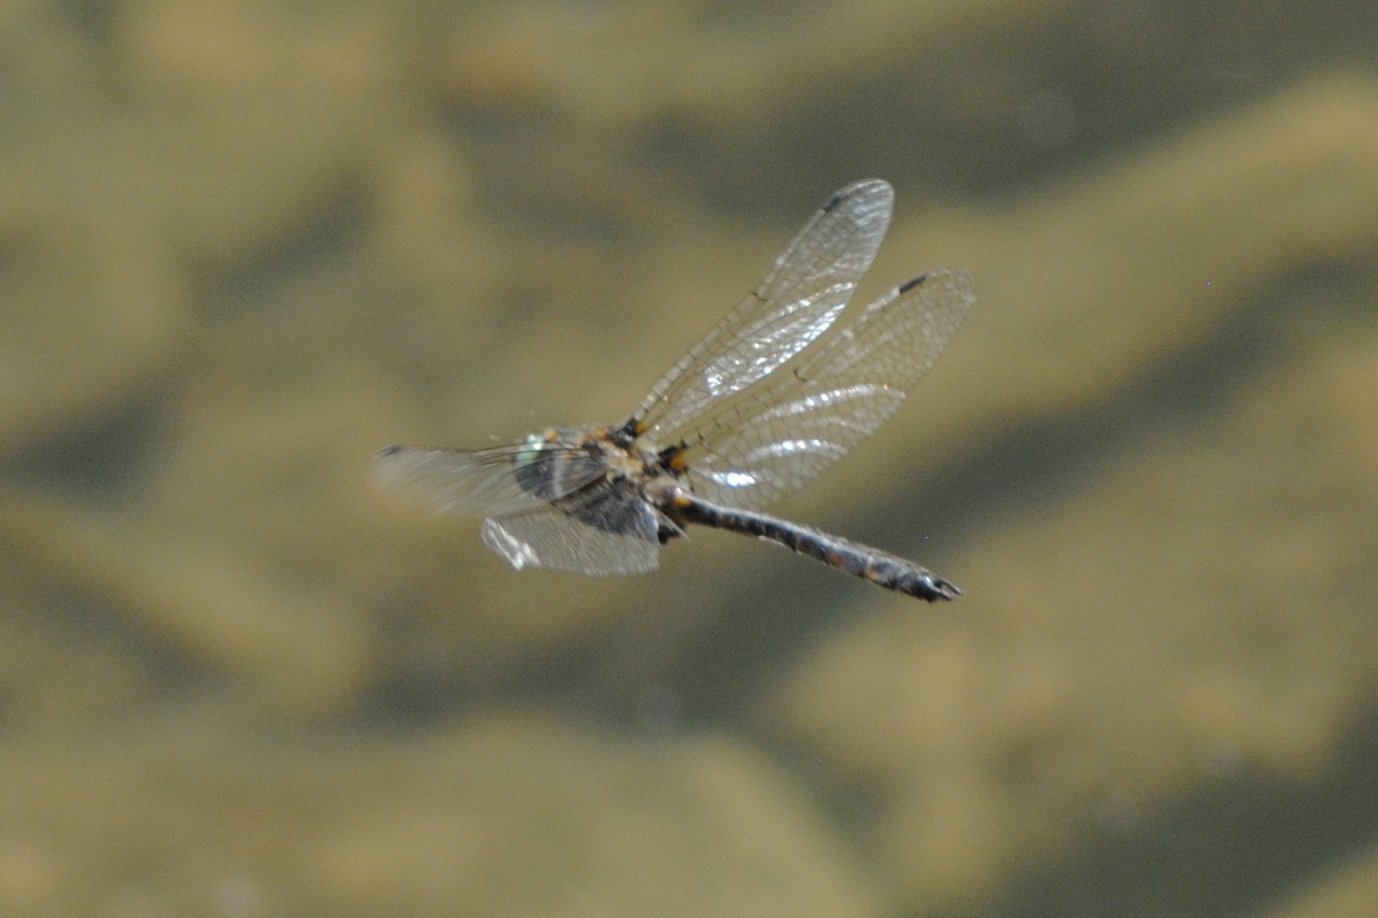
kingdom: Animalia
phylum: Arthropoda
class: Insecta
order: Odonata
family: Corduliidae
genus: Helocordulia
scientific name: Helocordulia uhleri
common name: Uhler's sundragon
